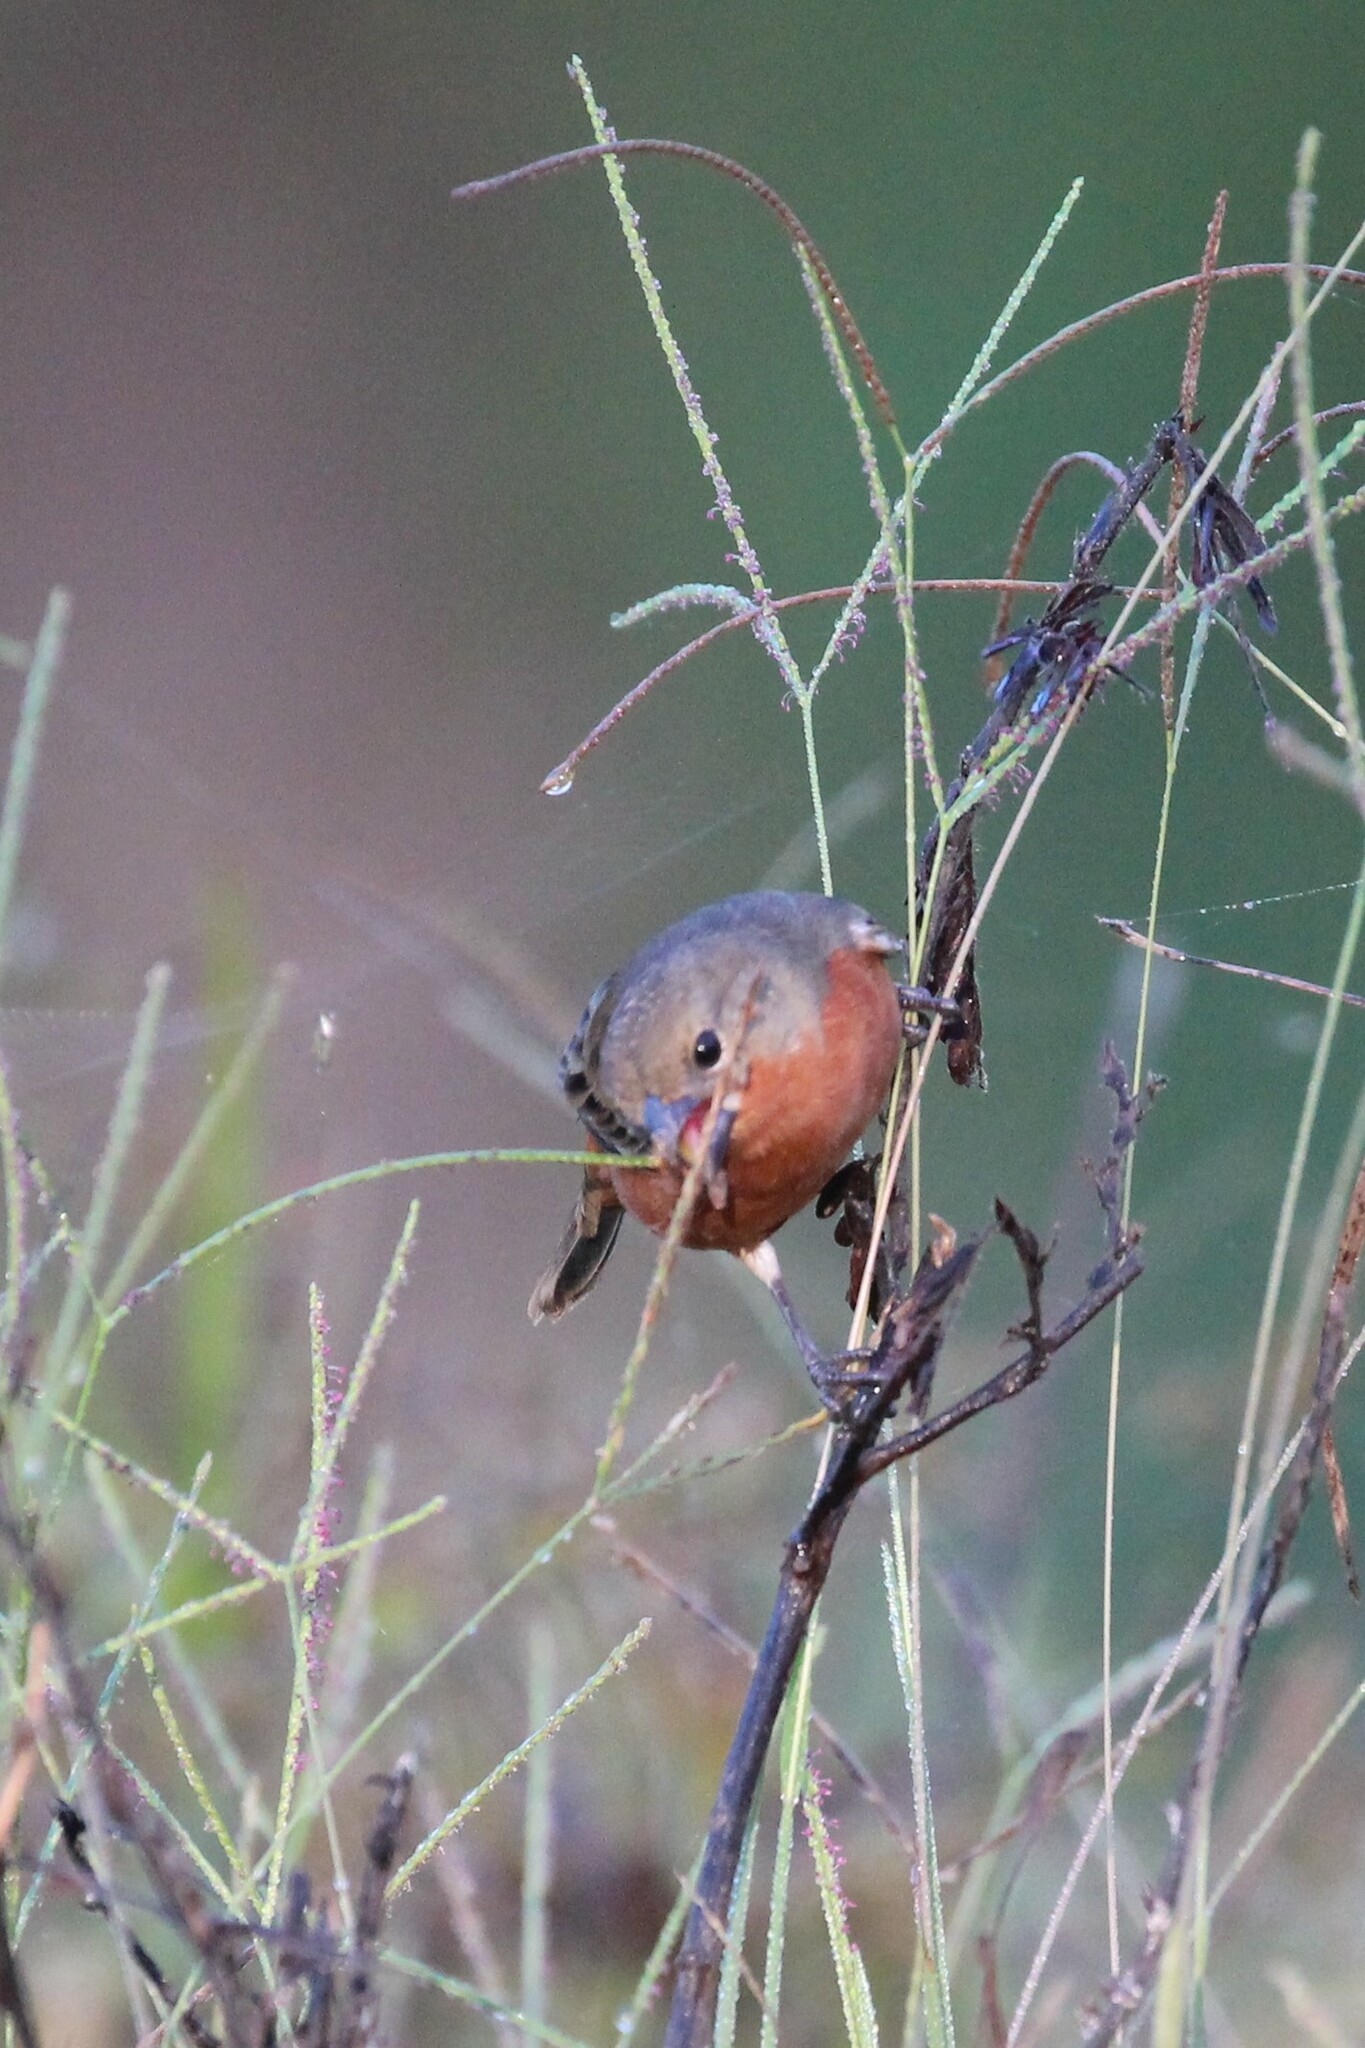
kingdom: Animalia
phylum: Chordata
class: Aves
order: Passeriformes
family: Thraupidae
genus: Sporophila
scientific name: Sporophila minuta
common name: Ruddy-breasted seedeater
